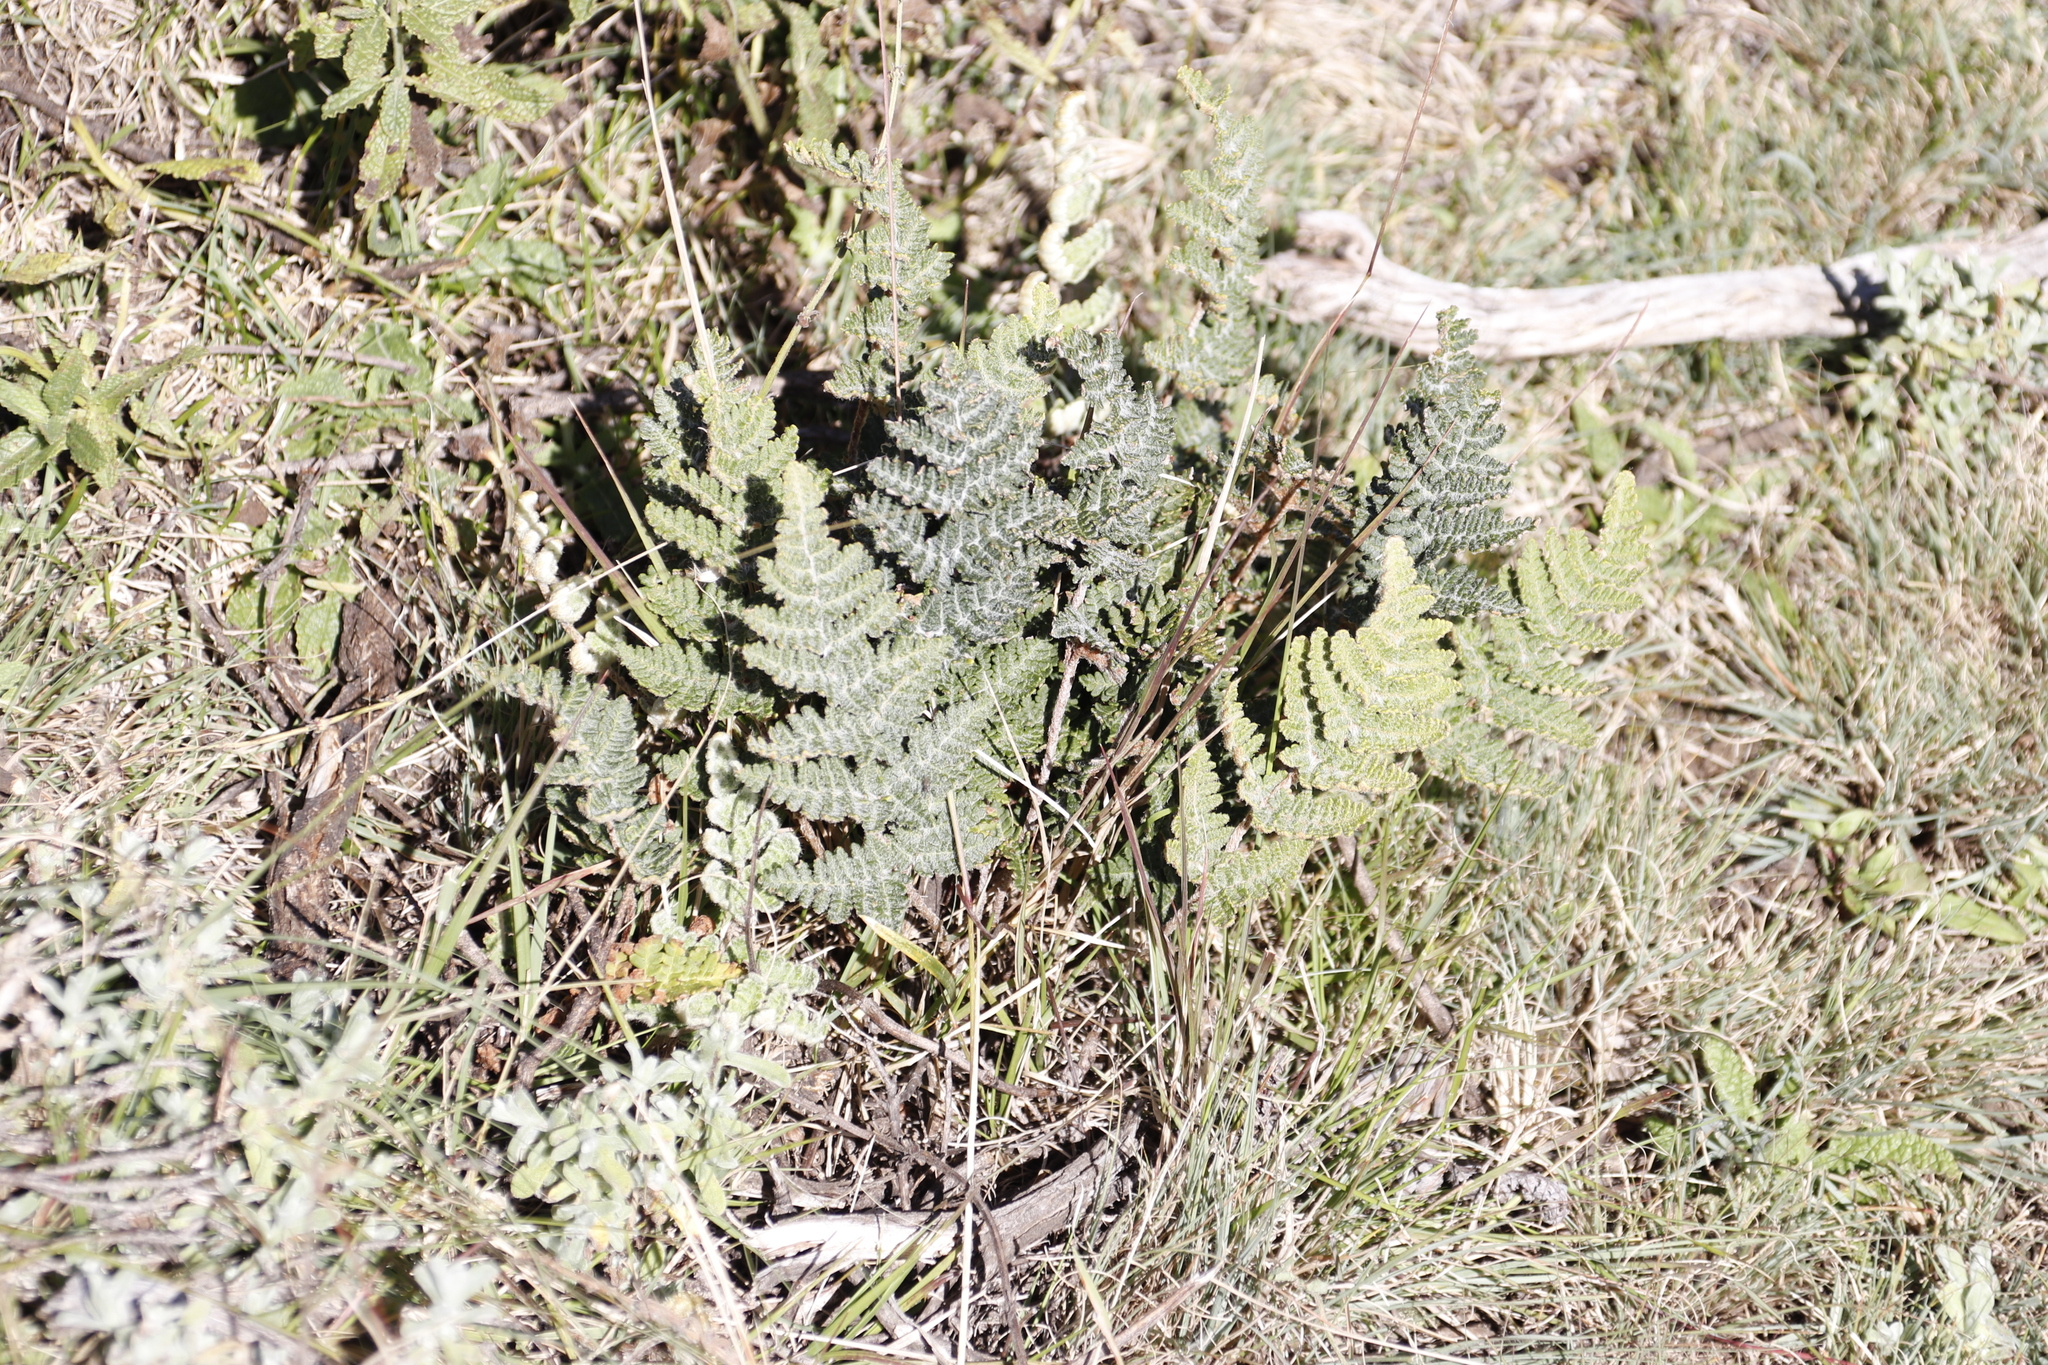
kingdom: Plantae
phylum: Tracheophyta
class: Polypodiopsida
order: Polypodiales
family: Pteridaceae
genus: Cheilanthes
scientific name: Cheilanthes eckloniana
